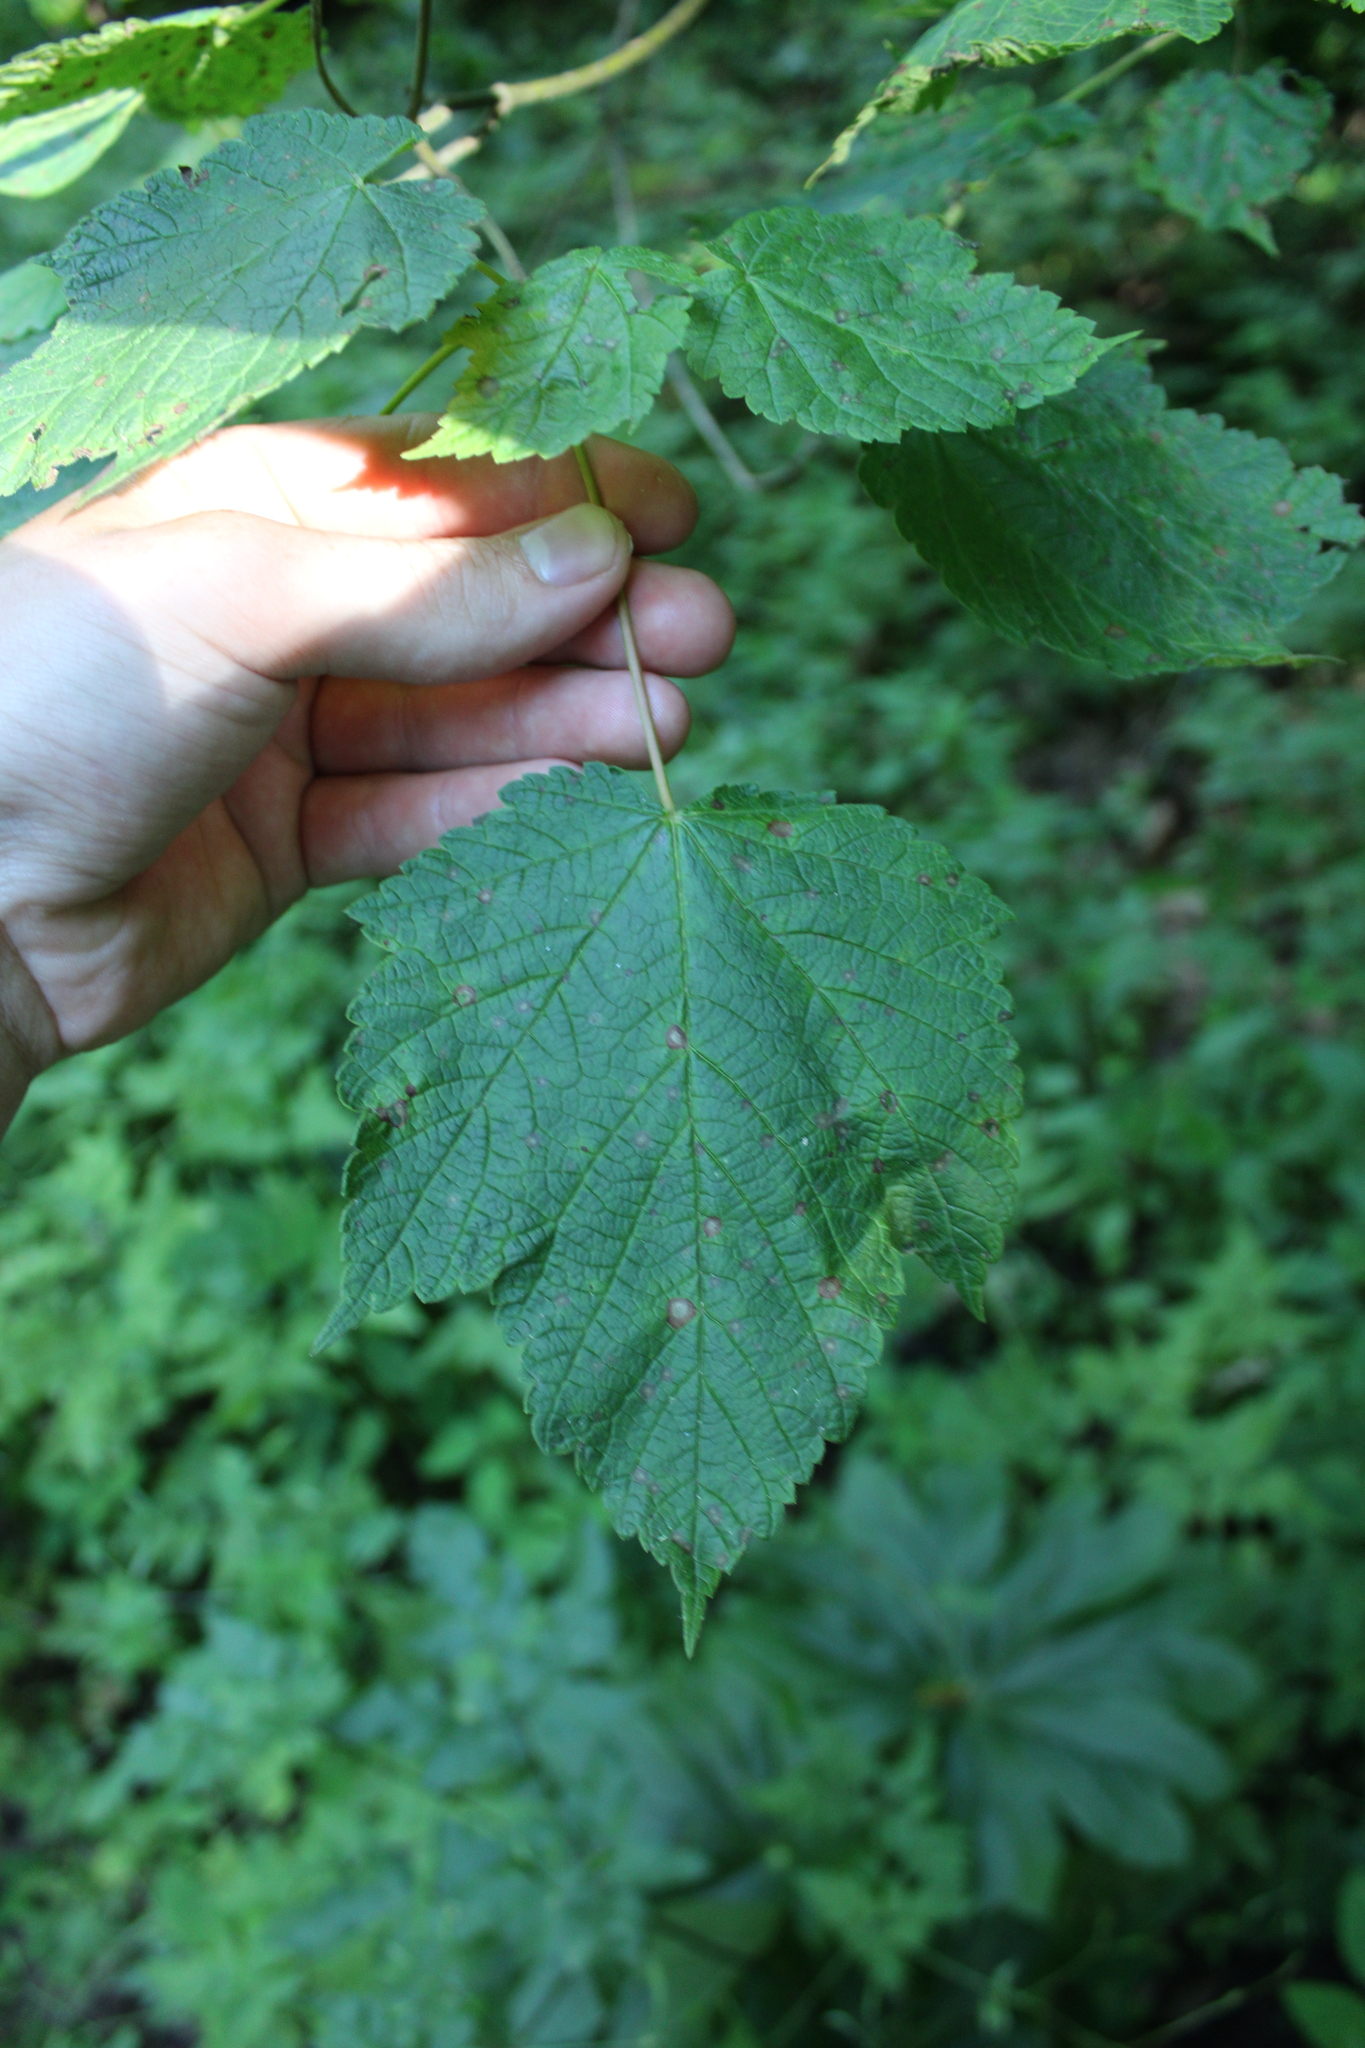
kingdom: Plantae
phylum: Tracheophyta
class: Magnoliopsida
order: Sapindales
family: Sapindaceae
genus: Acer
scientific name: Acer spicatum
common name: Mountain maple
